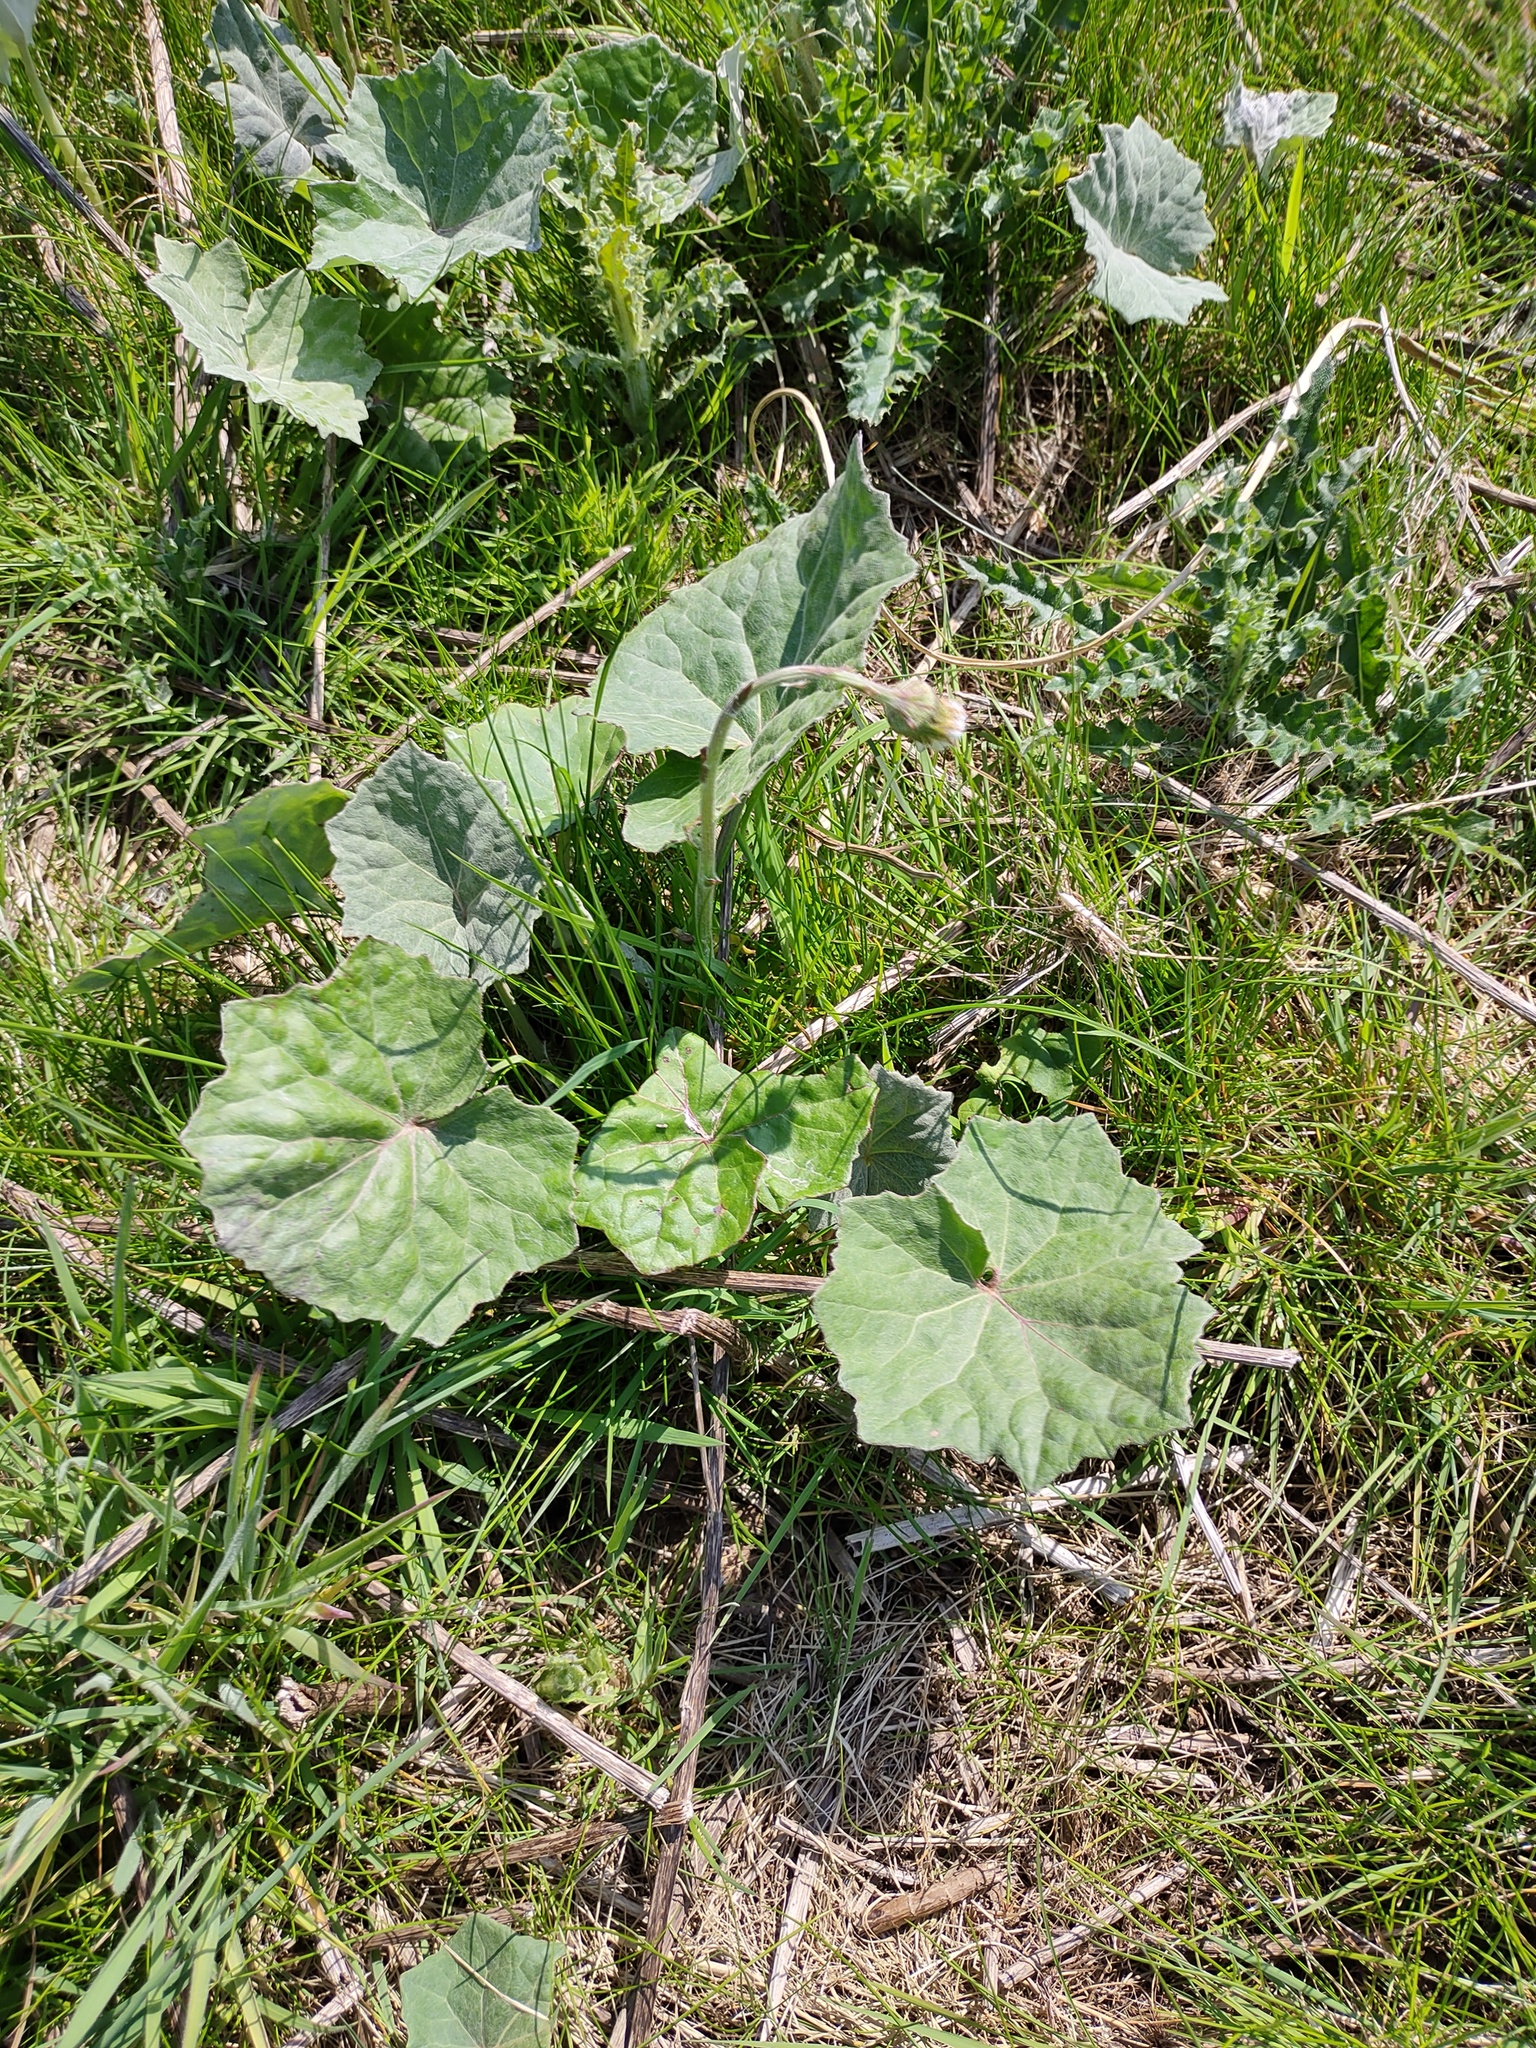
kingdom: Plantae
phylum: Tracheophyta
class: Magnoliopsida
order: Asterales
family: Asteraceae
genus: Tussilago
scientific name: Tussilago farfara
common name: Coltsfoot
